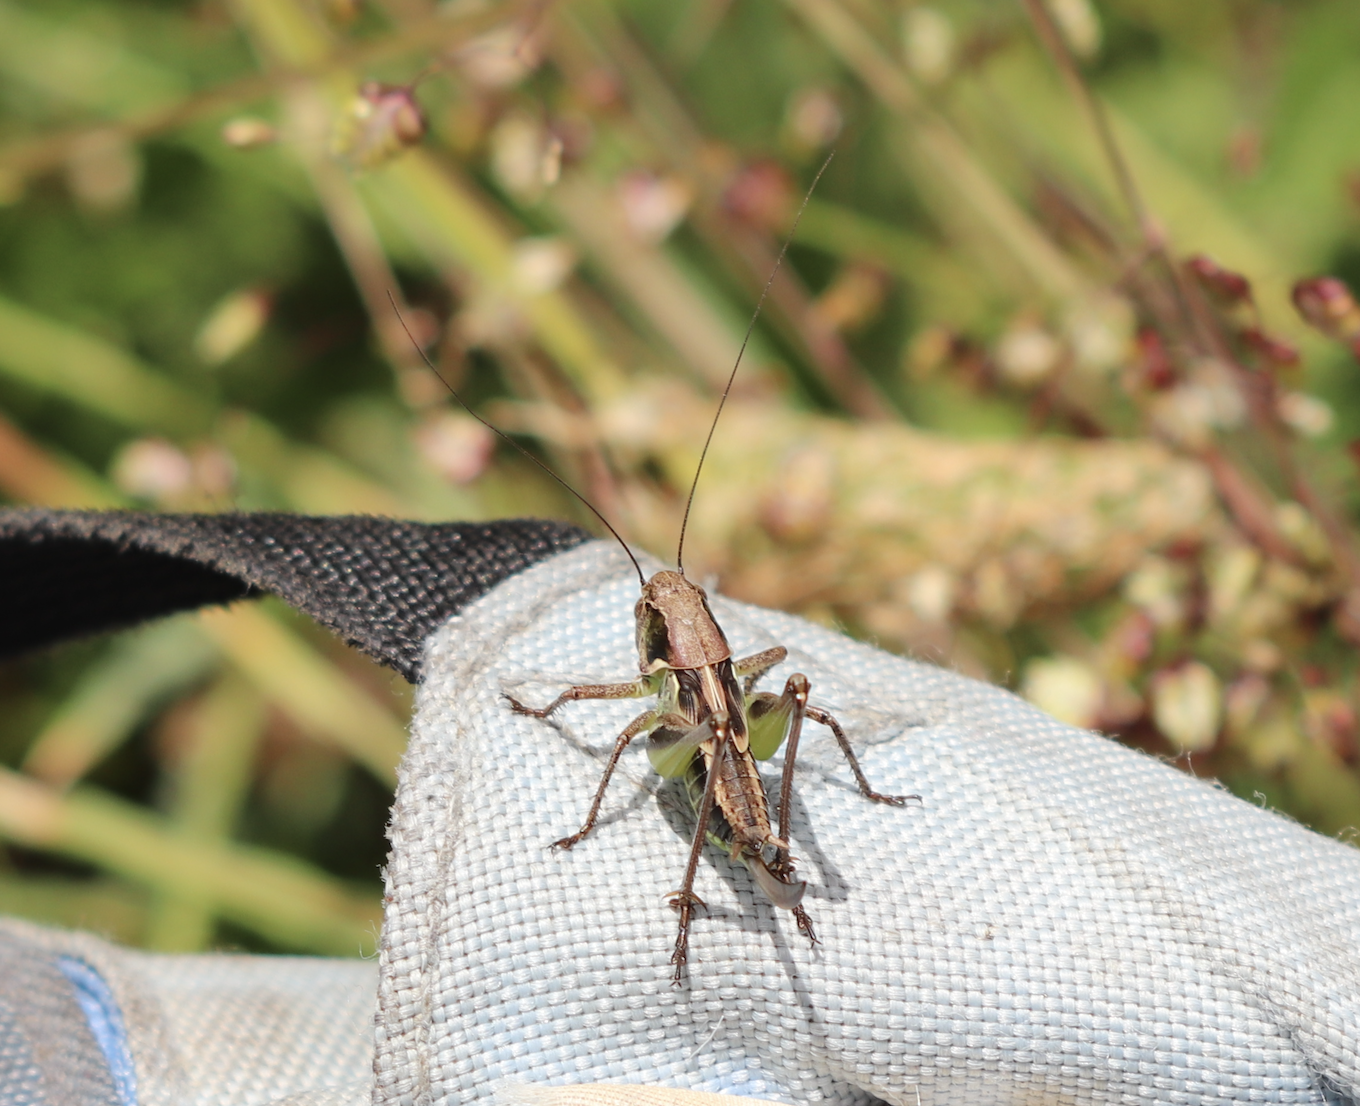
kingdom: Animalia
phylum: Arthropoda
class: Insecta
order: Orthoptera
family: Tettigoniidae
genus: Platycleis
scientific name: Platycleis grisea
